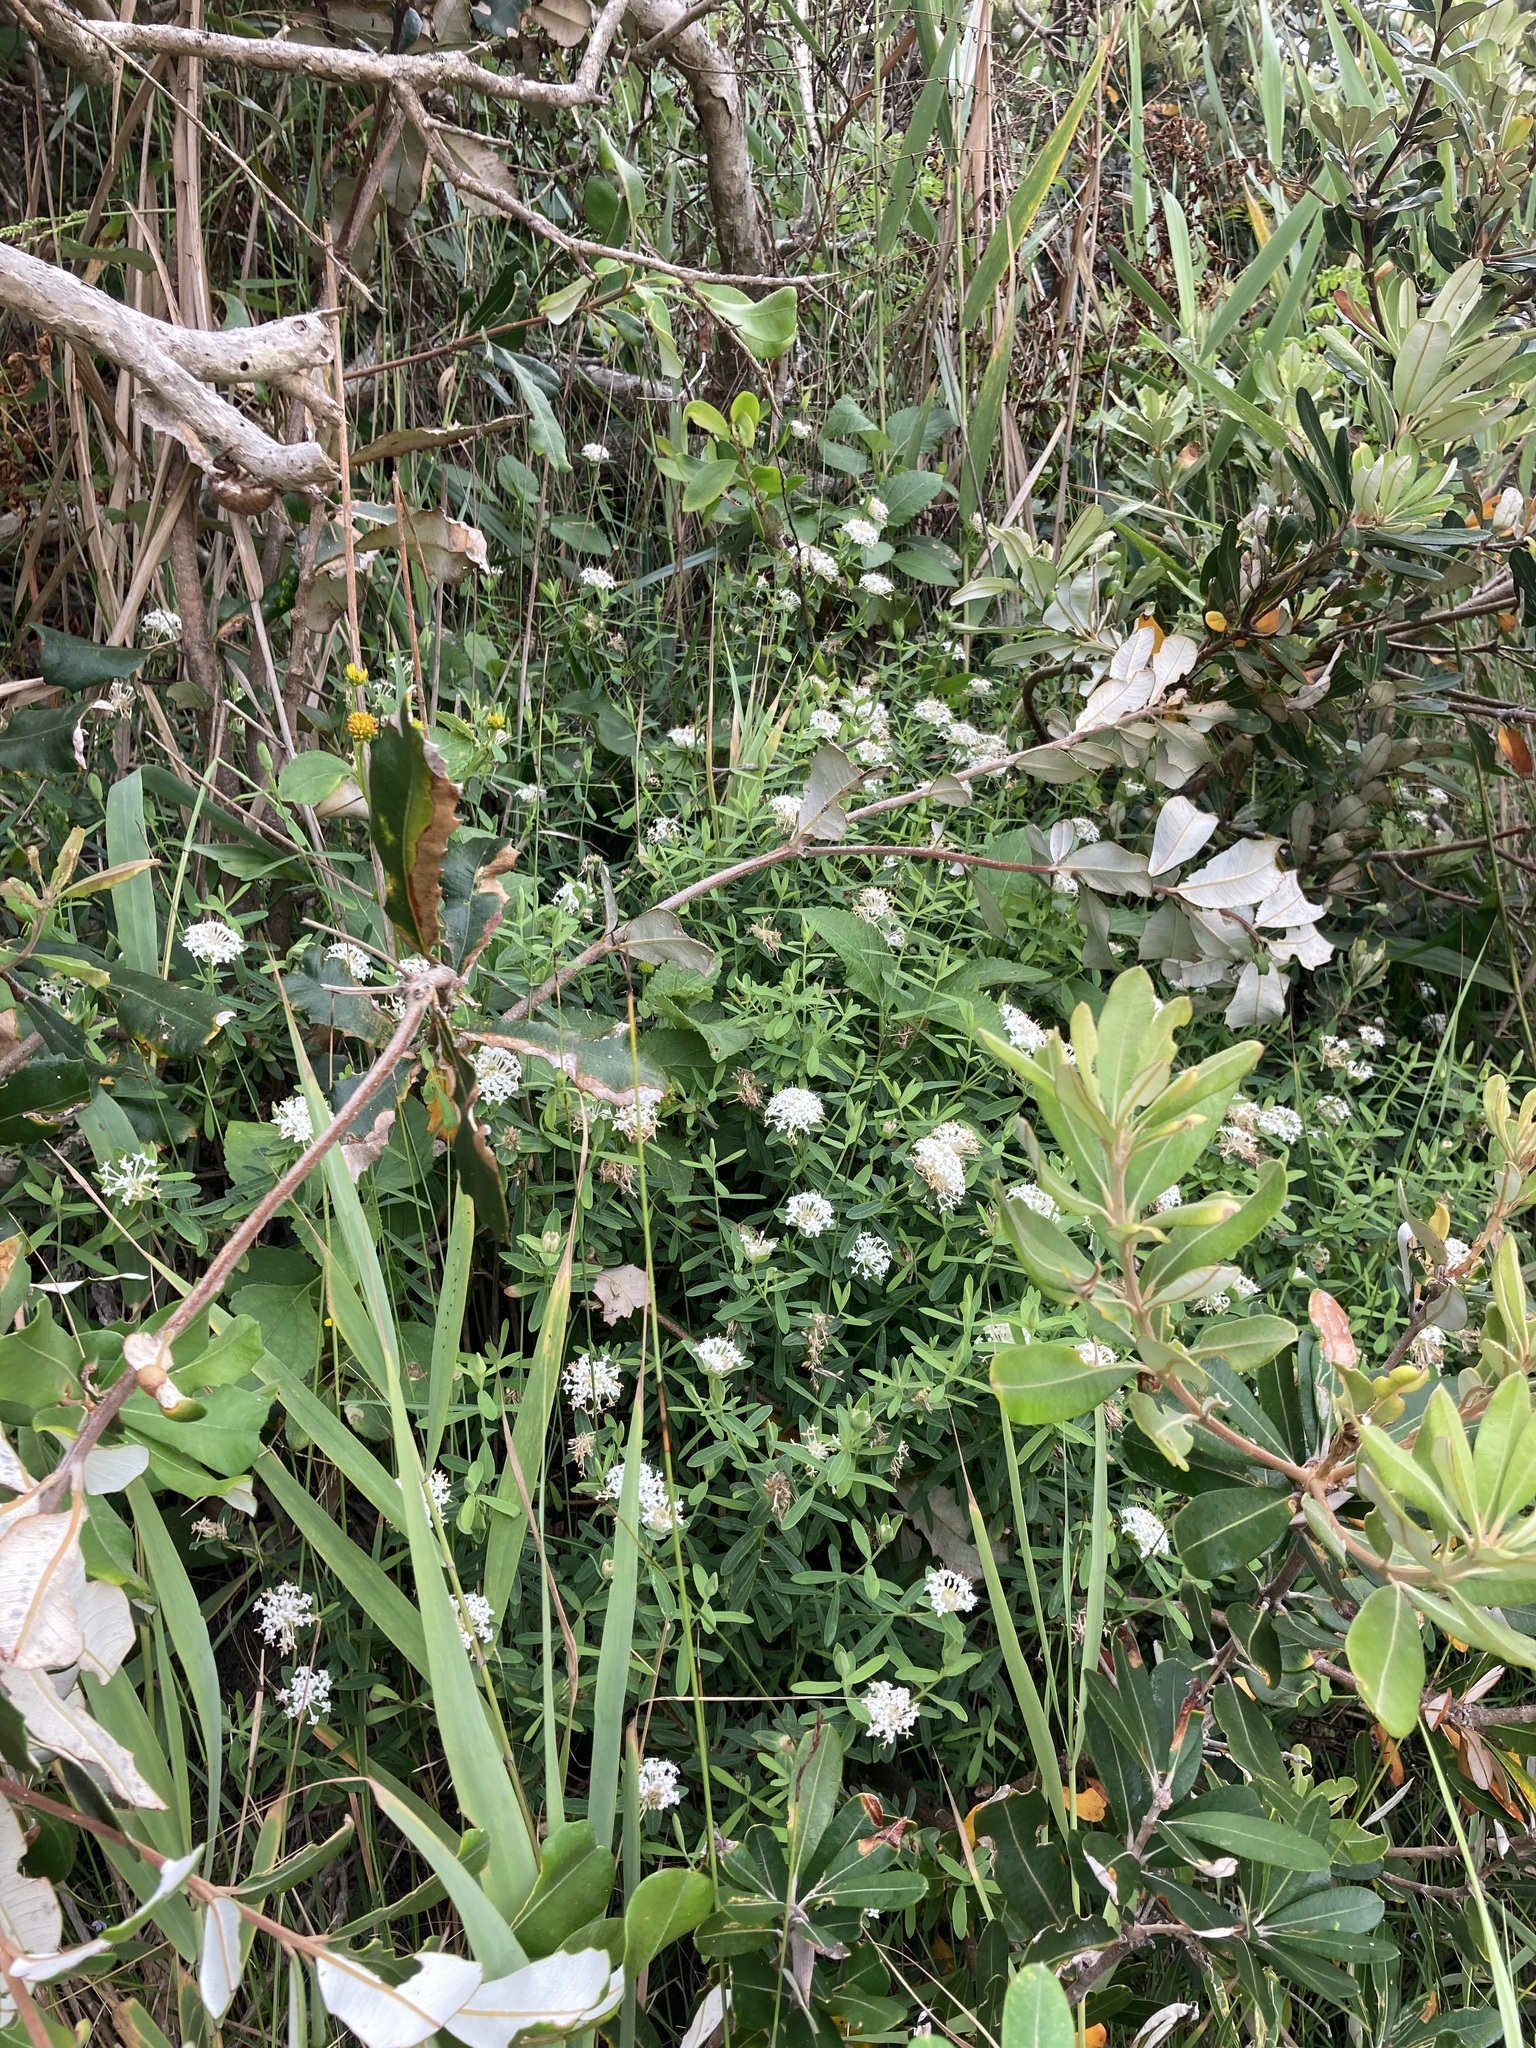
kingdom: Plantae
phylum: Tracheophyta
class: Magnoliopsida
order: Malvales
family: Thymelaeaceae
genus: Pimelea
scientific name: Pimelea linifolia
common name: Queen-of-the-bush
